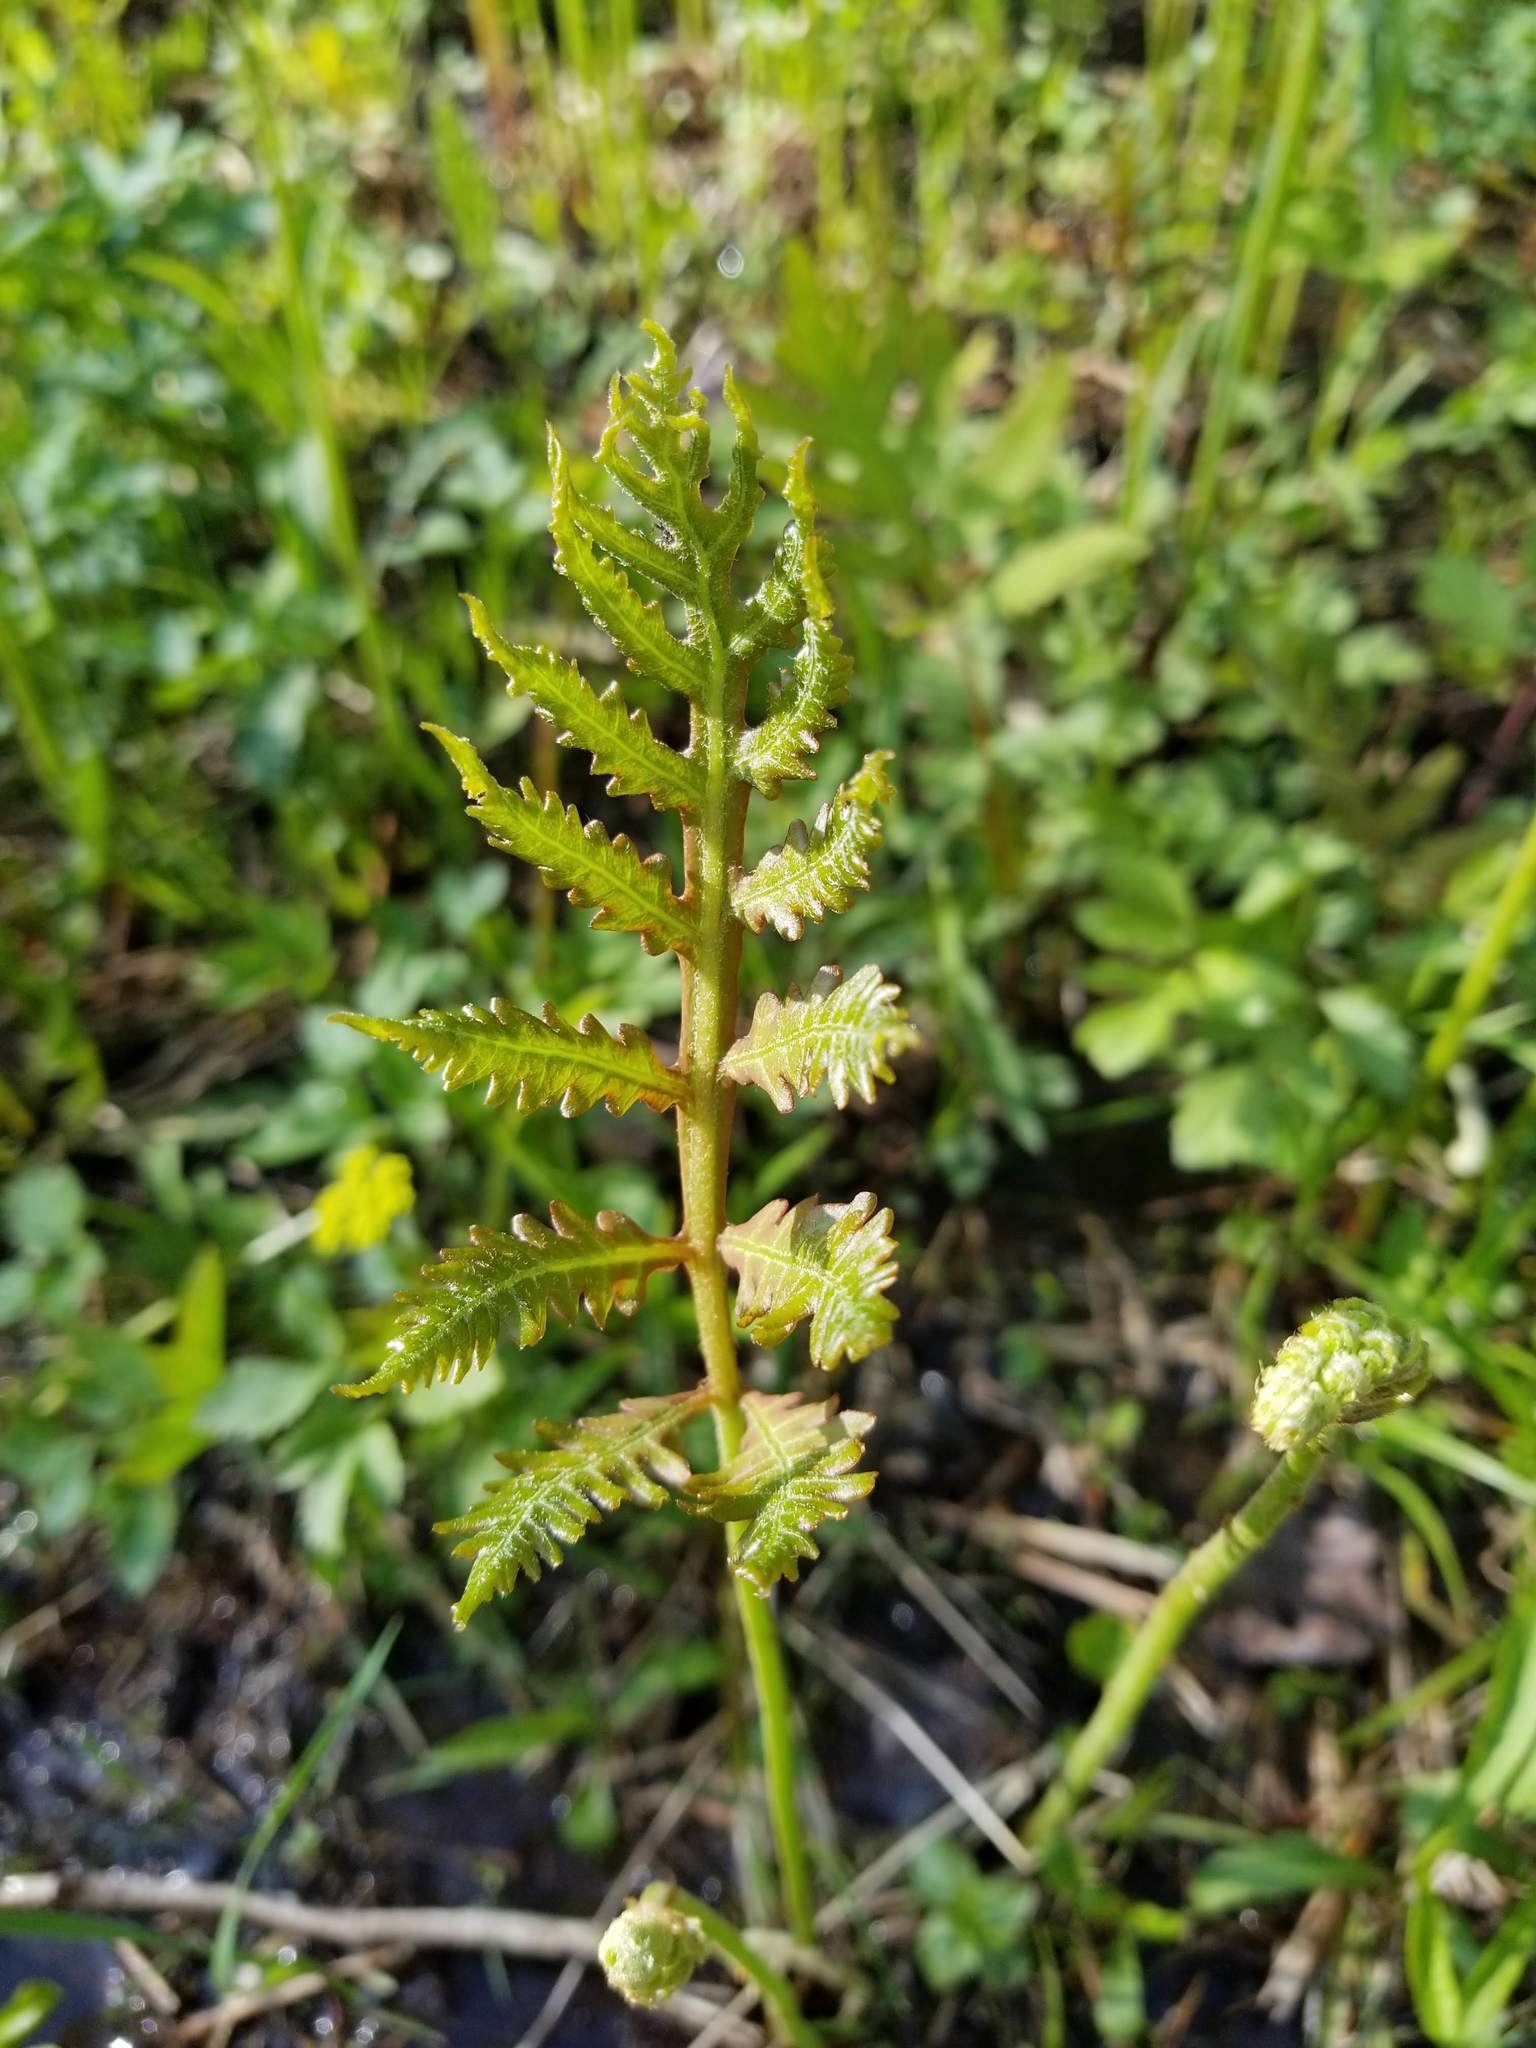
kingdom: Plantae
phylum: Tracheophyta
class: Polypodiopsida
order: Polypodiales
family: Onocleaceae
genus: Onoclea
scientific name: Onoclea sensibilis
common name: Sensitive fern
